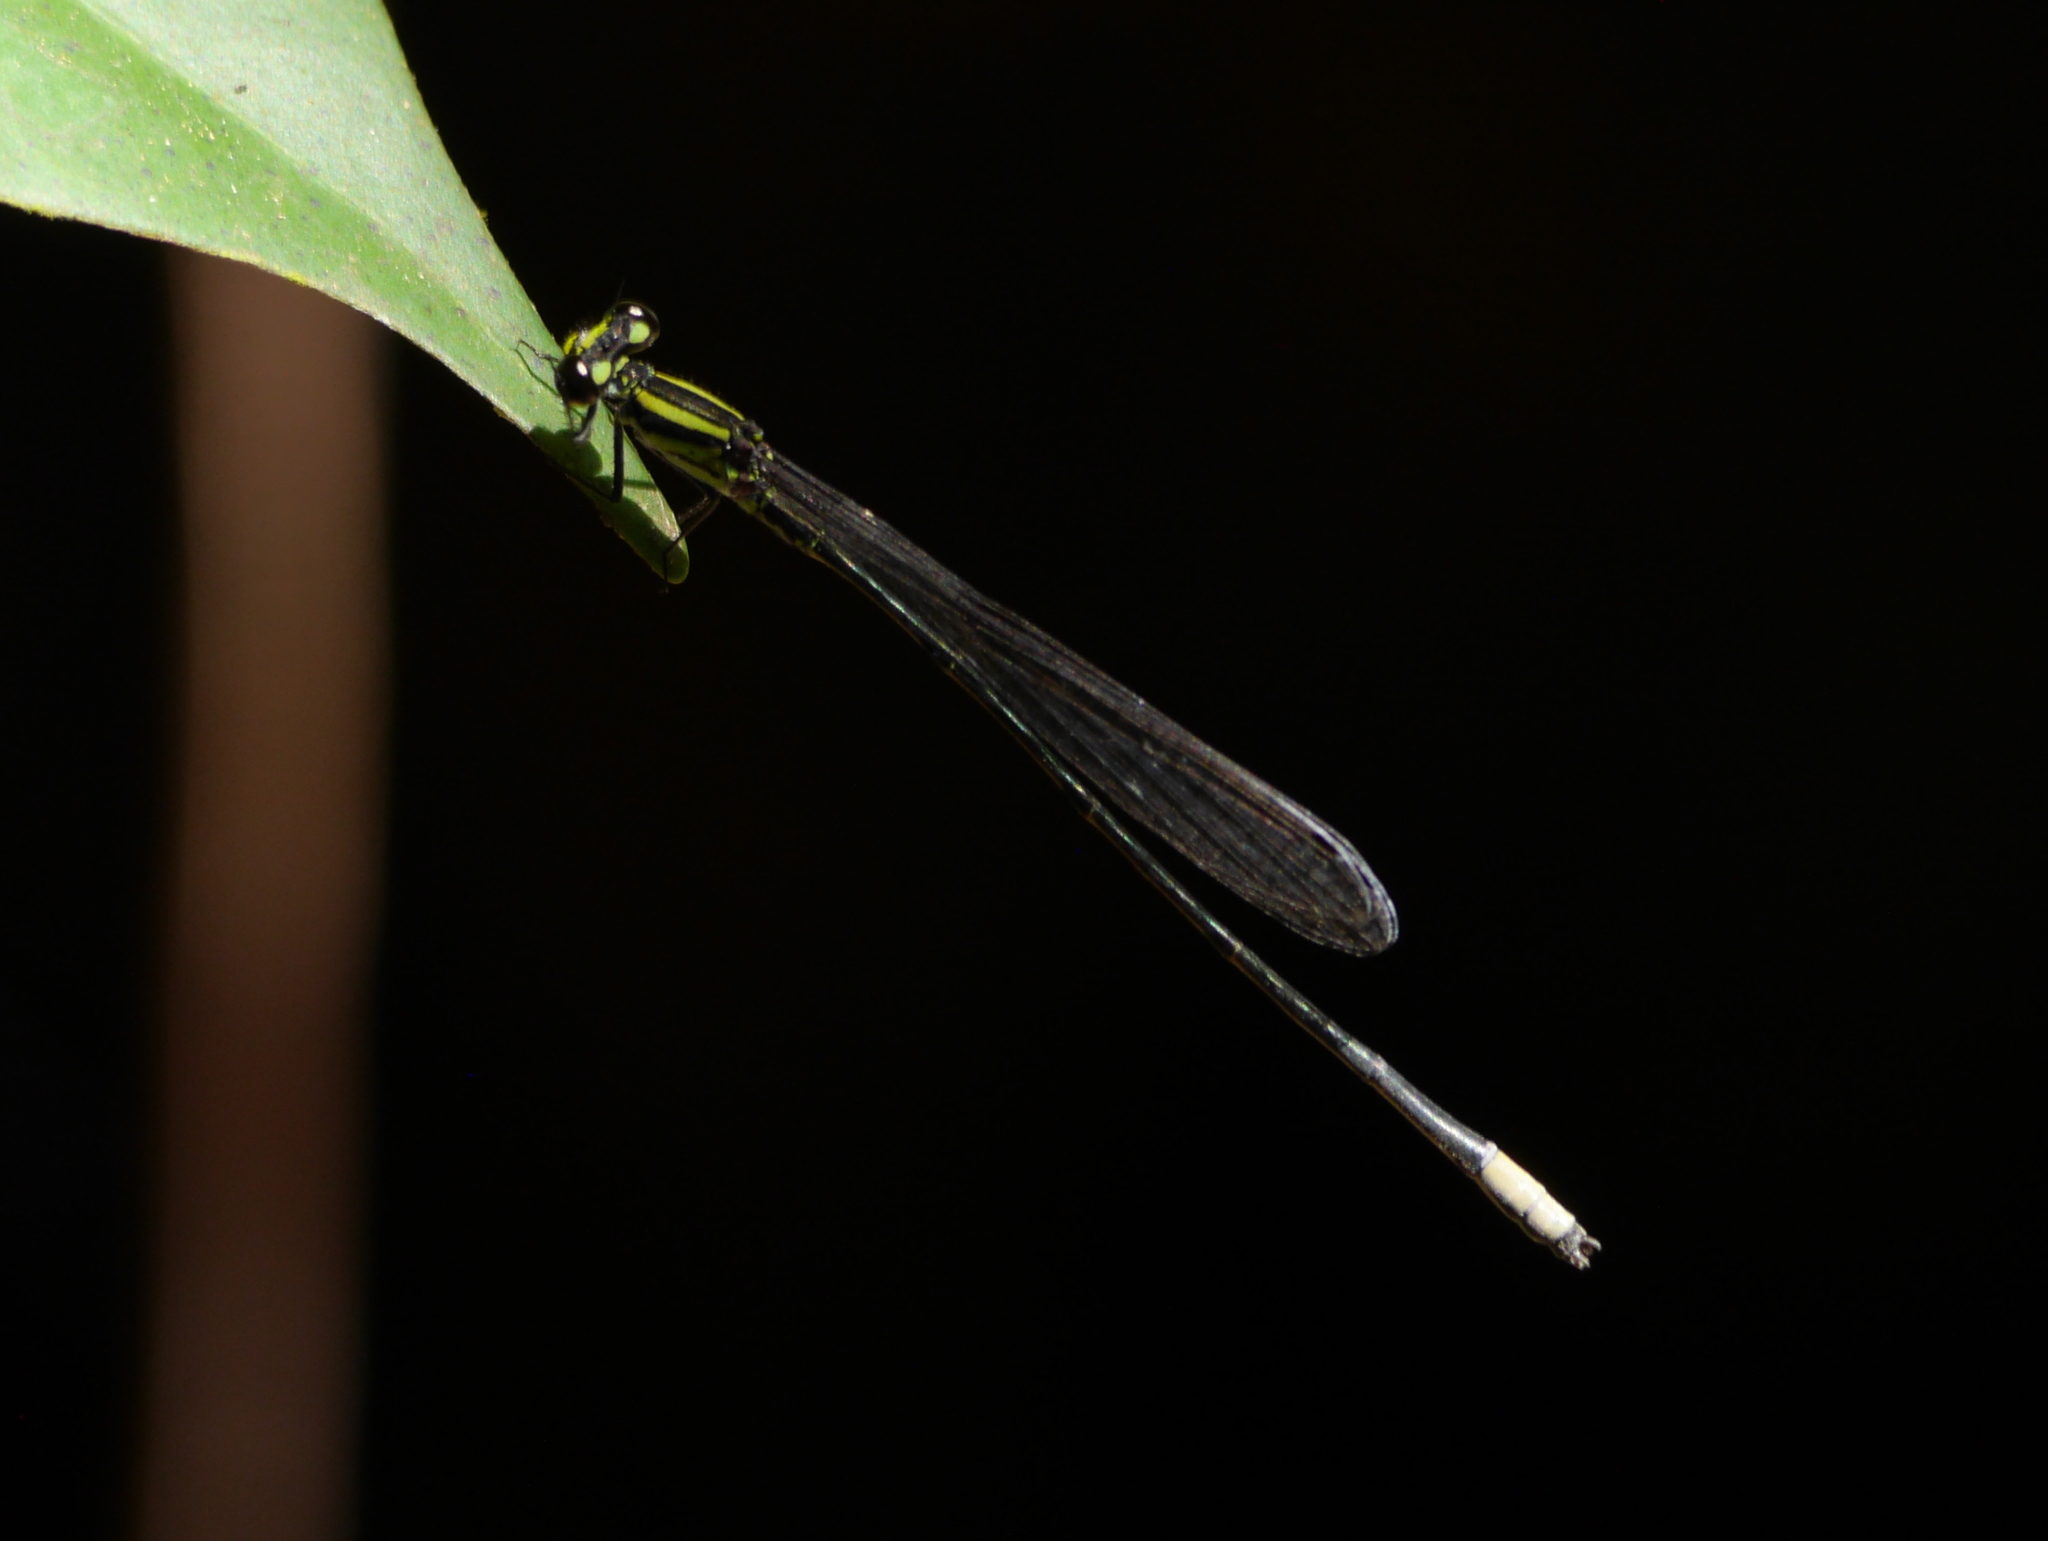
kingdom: Animalia
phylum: Arthropoda
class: Insecta
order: Odonata
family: Coenagrionidae
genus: Pseudagrion
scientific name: Pseudagrion melanicterum
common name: Farmbush sprite
